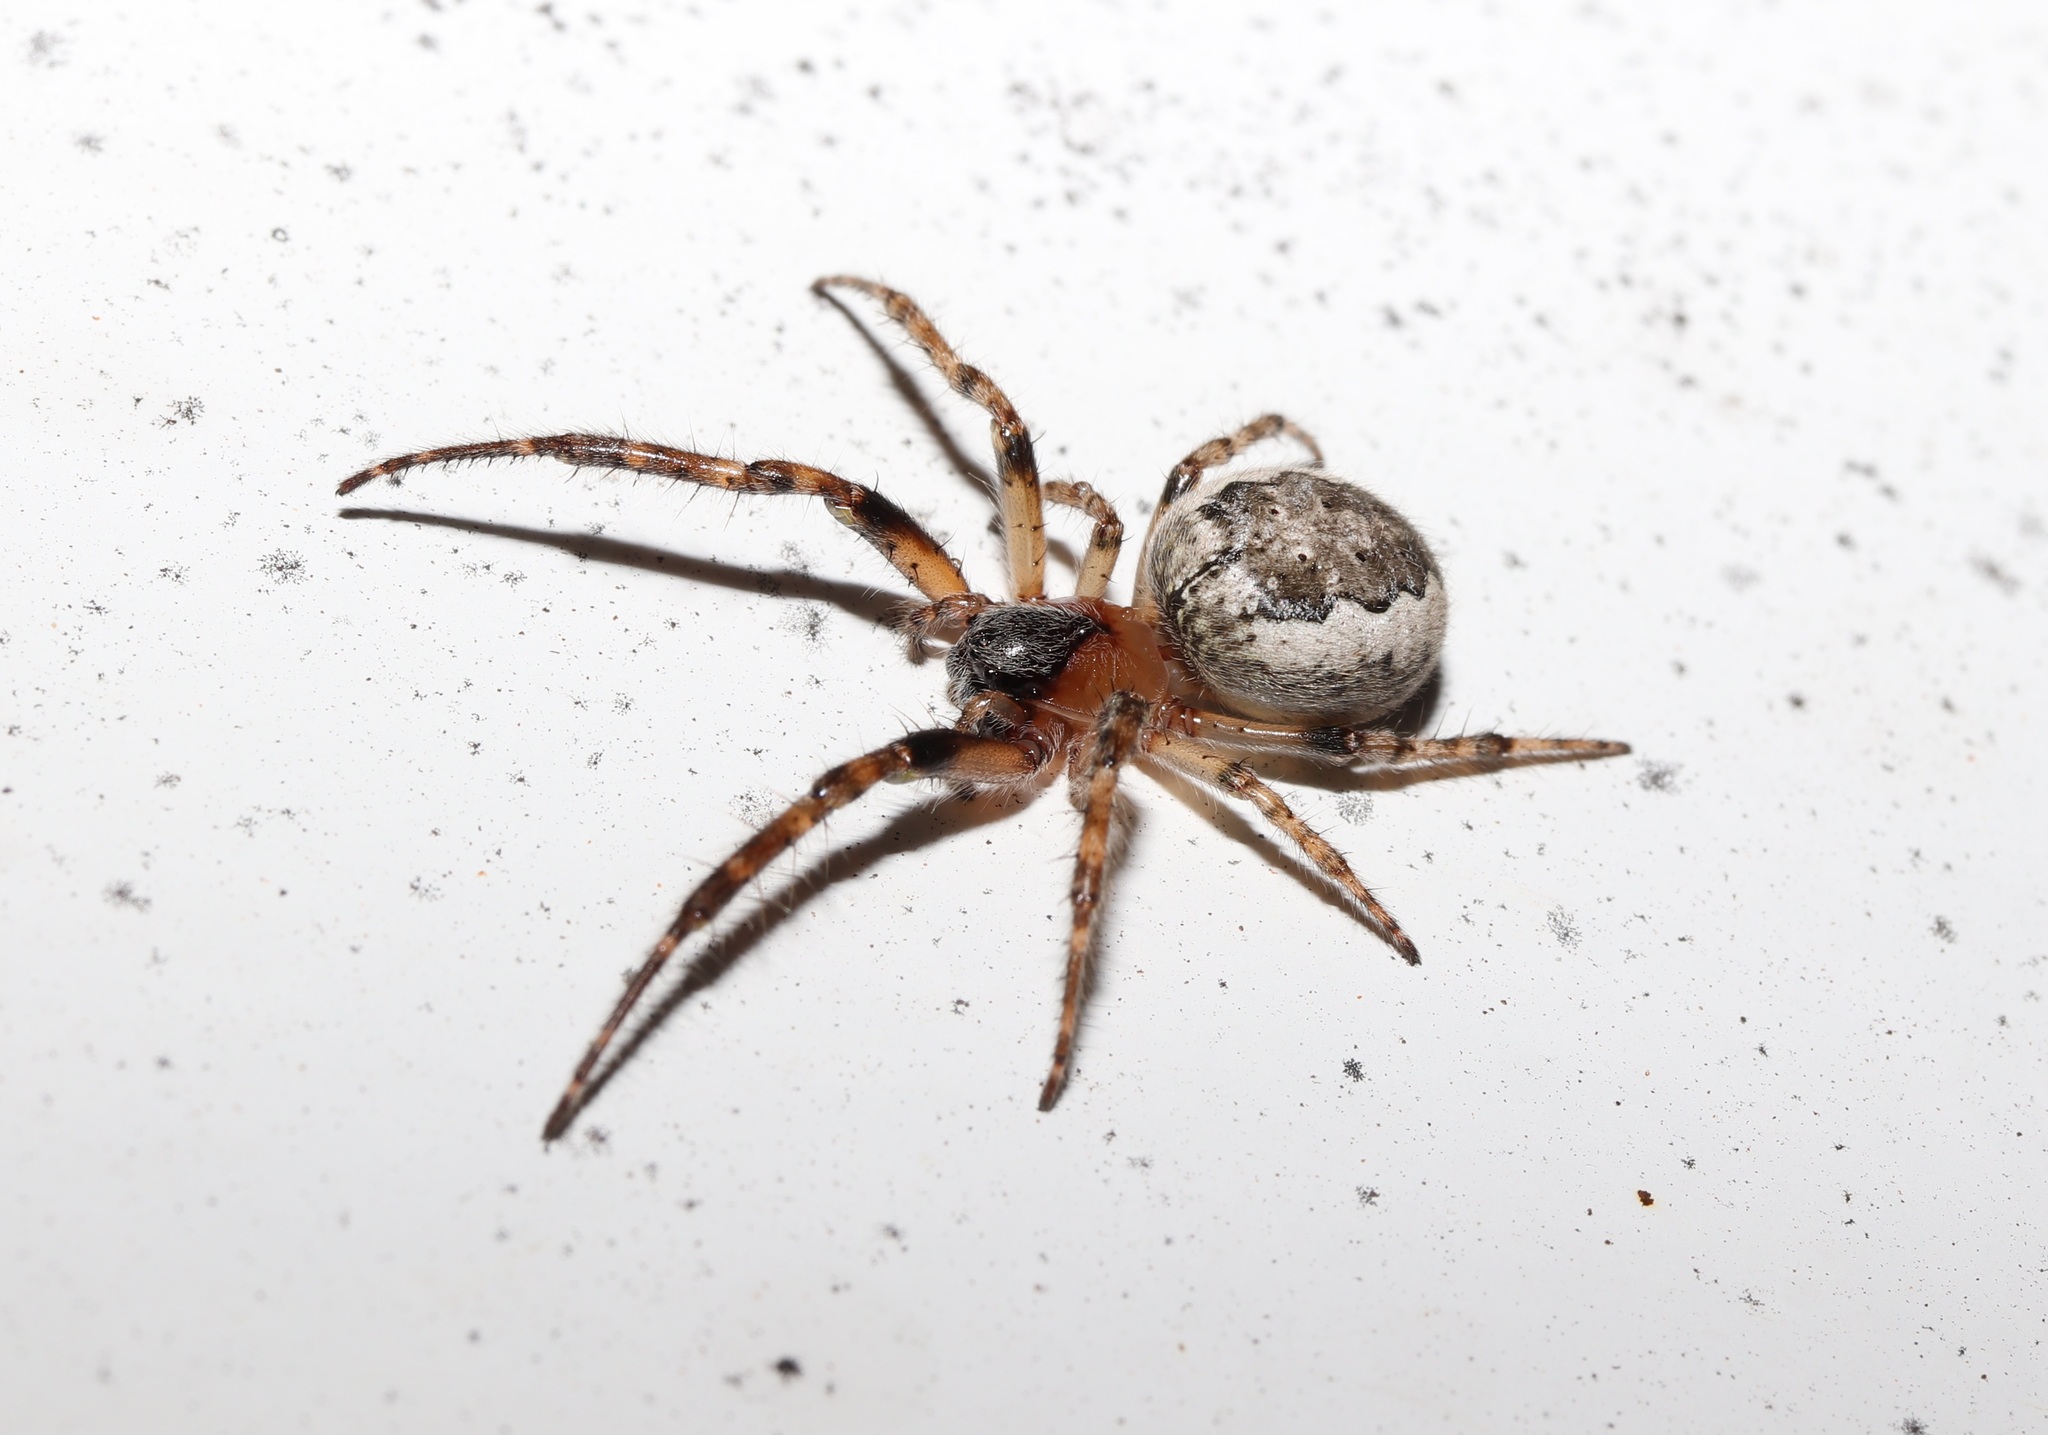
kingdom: Animalia
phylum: Arthropoda
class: Arachnida
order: Araneae
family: Araneidae
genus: Yaginumia
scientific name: Yaginumia sia
